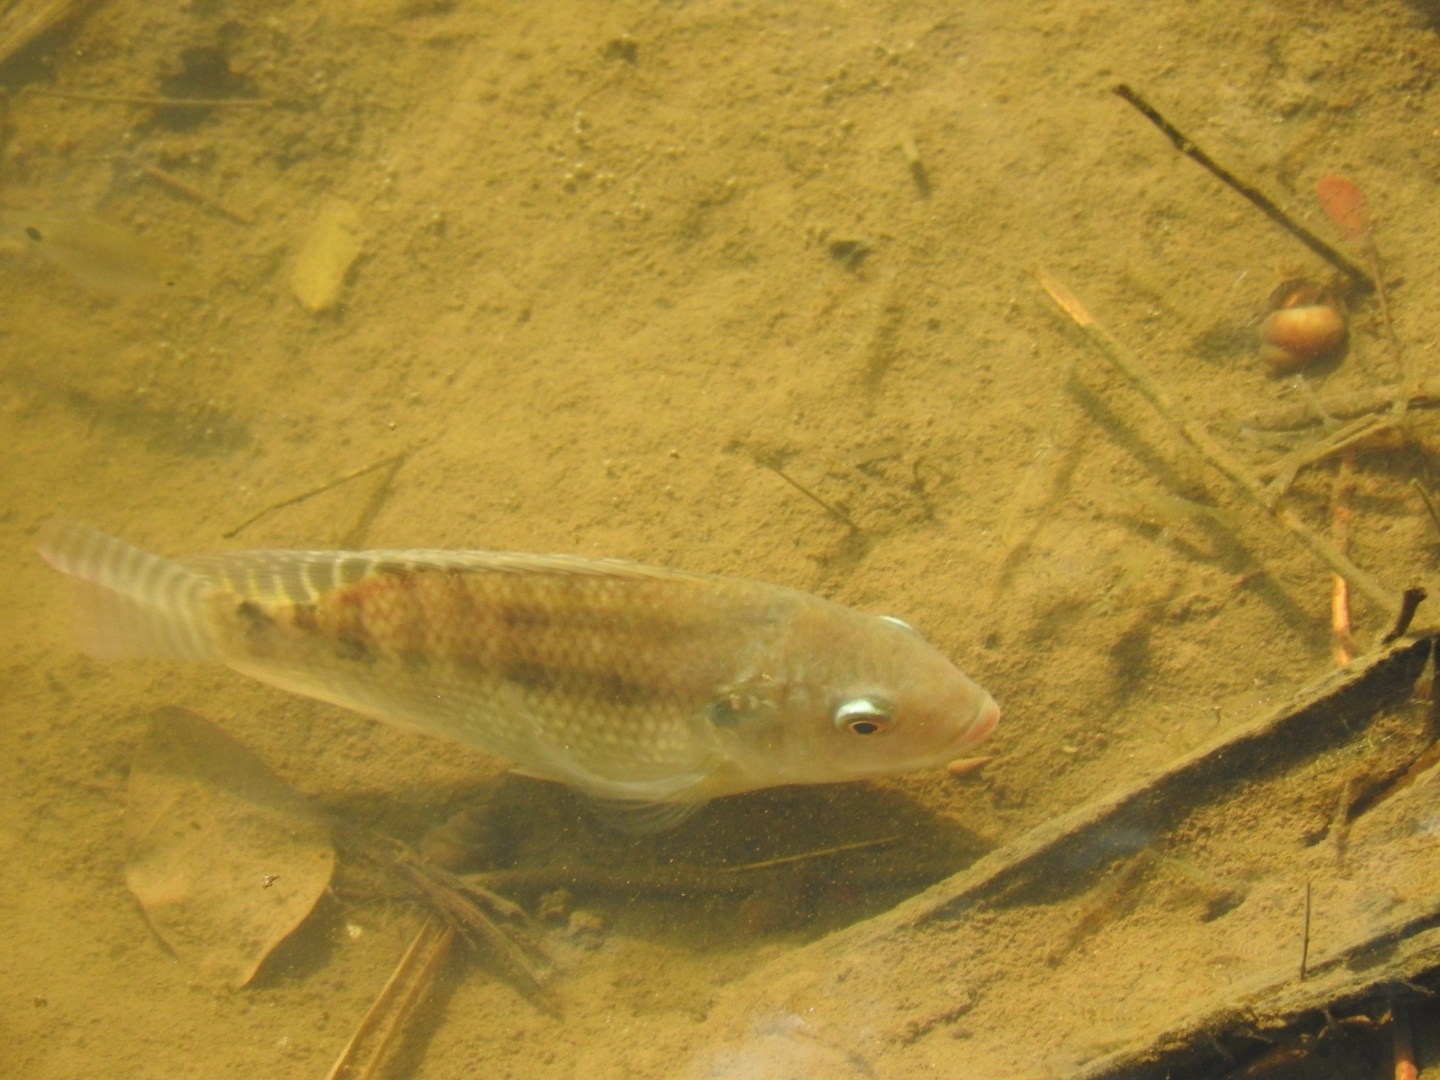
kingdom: Animalia
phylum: Chordata
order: Perciformes
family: Cichlidae
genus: Oreochromis
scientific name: Oreochromis niloticus
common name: Nile tilapia
